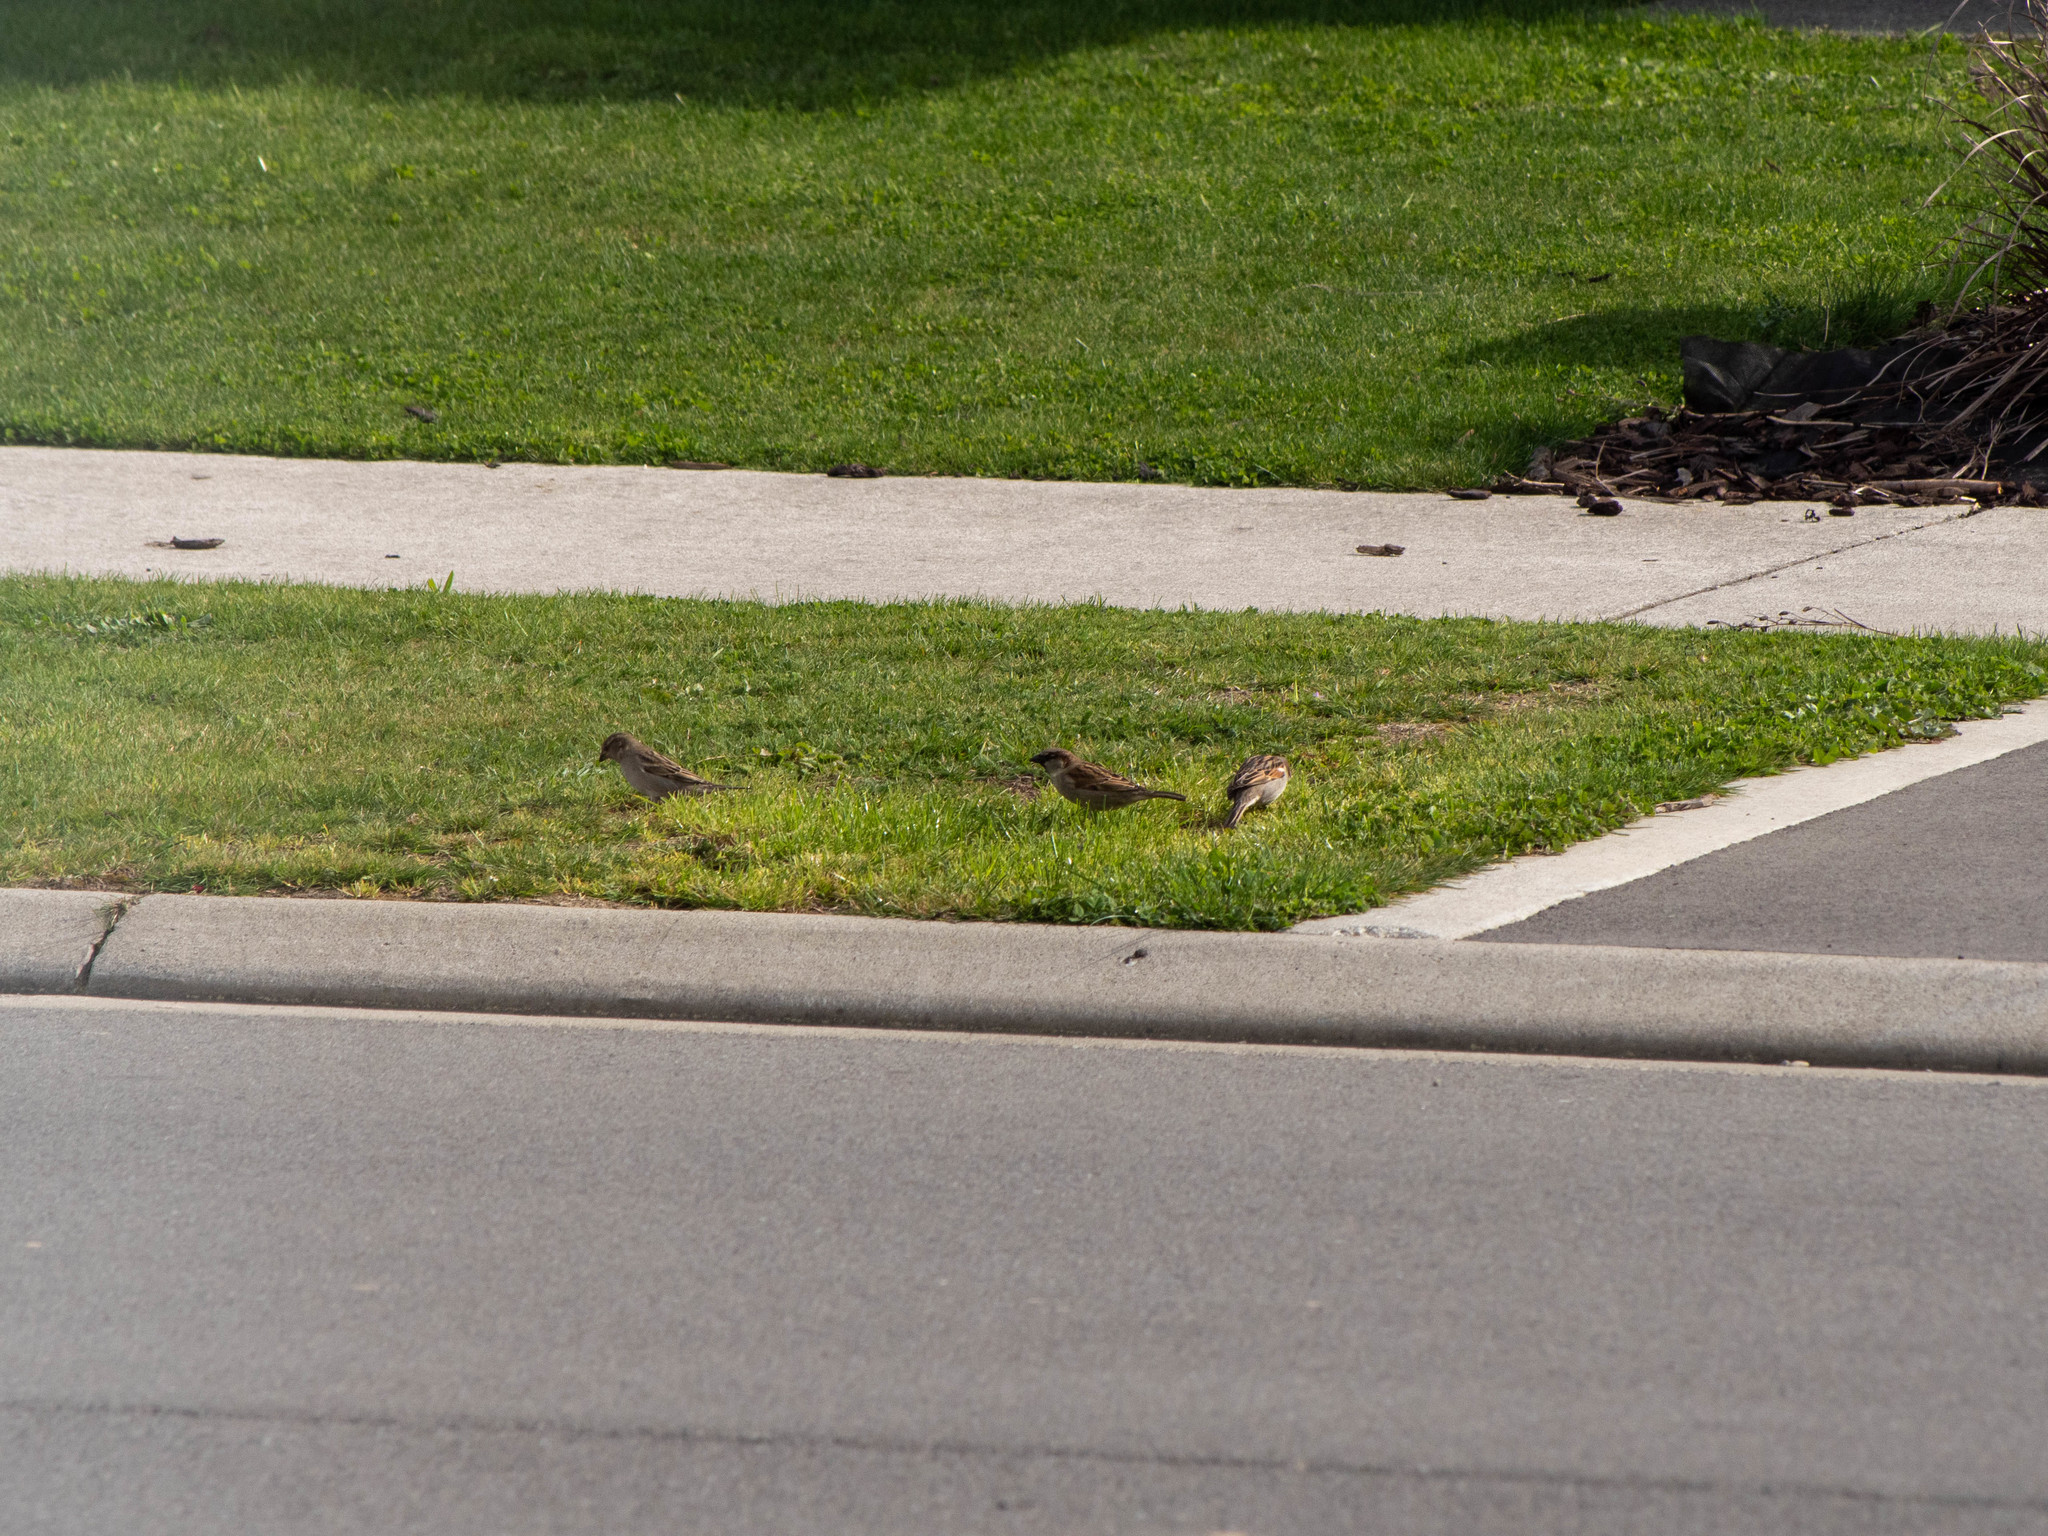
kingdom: Animalia
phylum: Chordata
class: Aves
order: Passeriformes
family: Passeridae
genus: Passer
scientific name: Passer domesticus
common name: House sparrow
